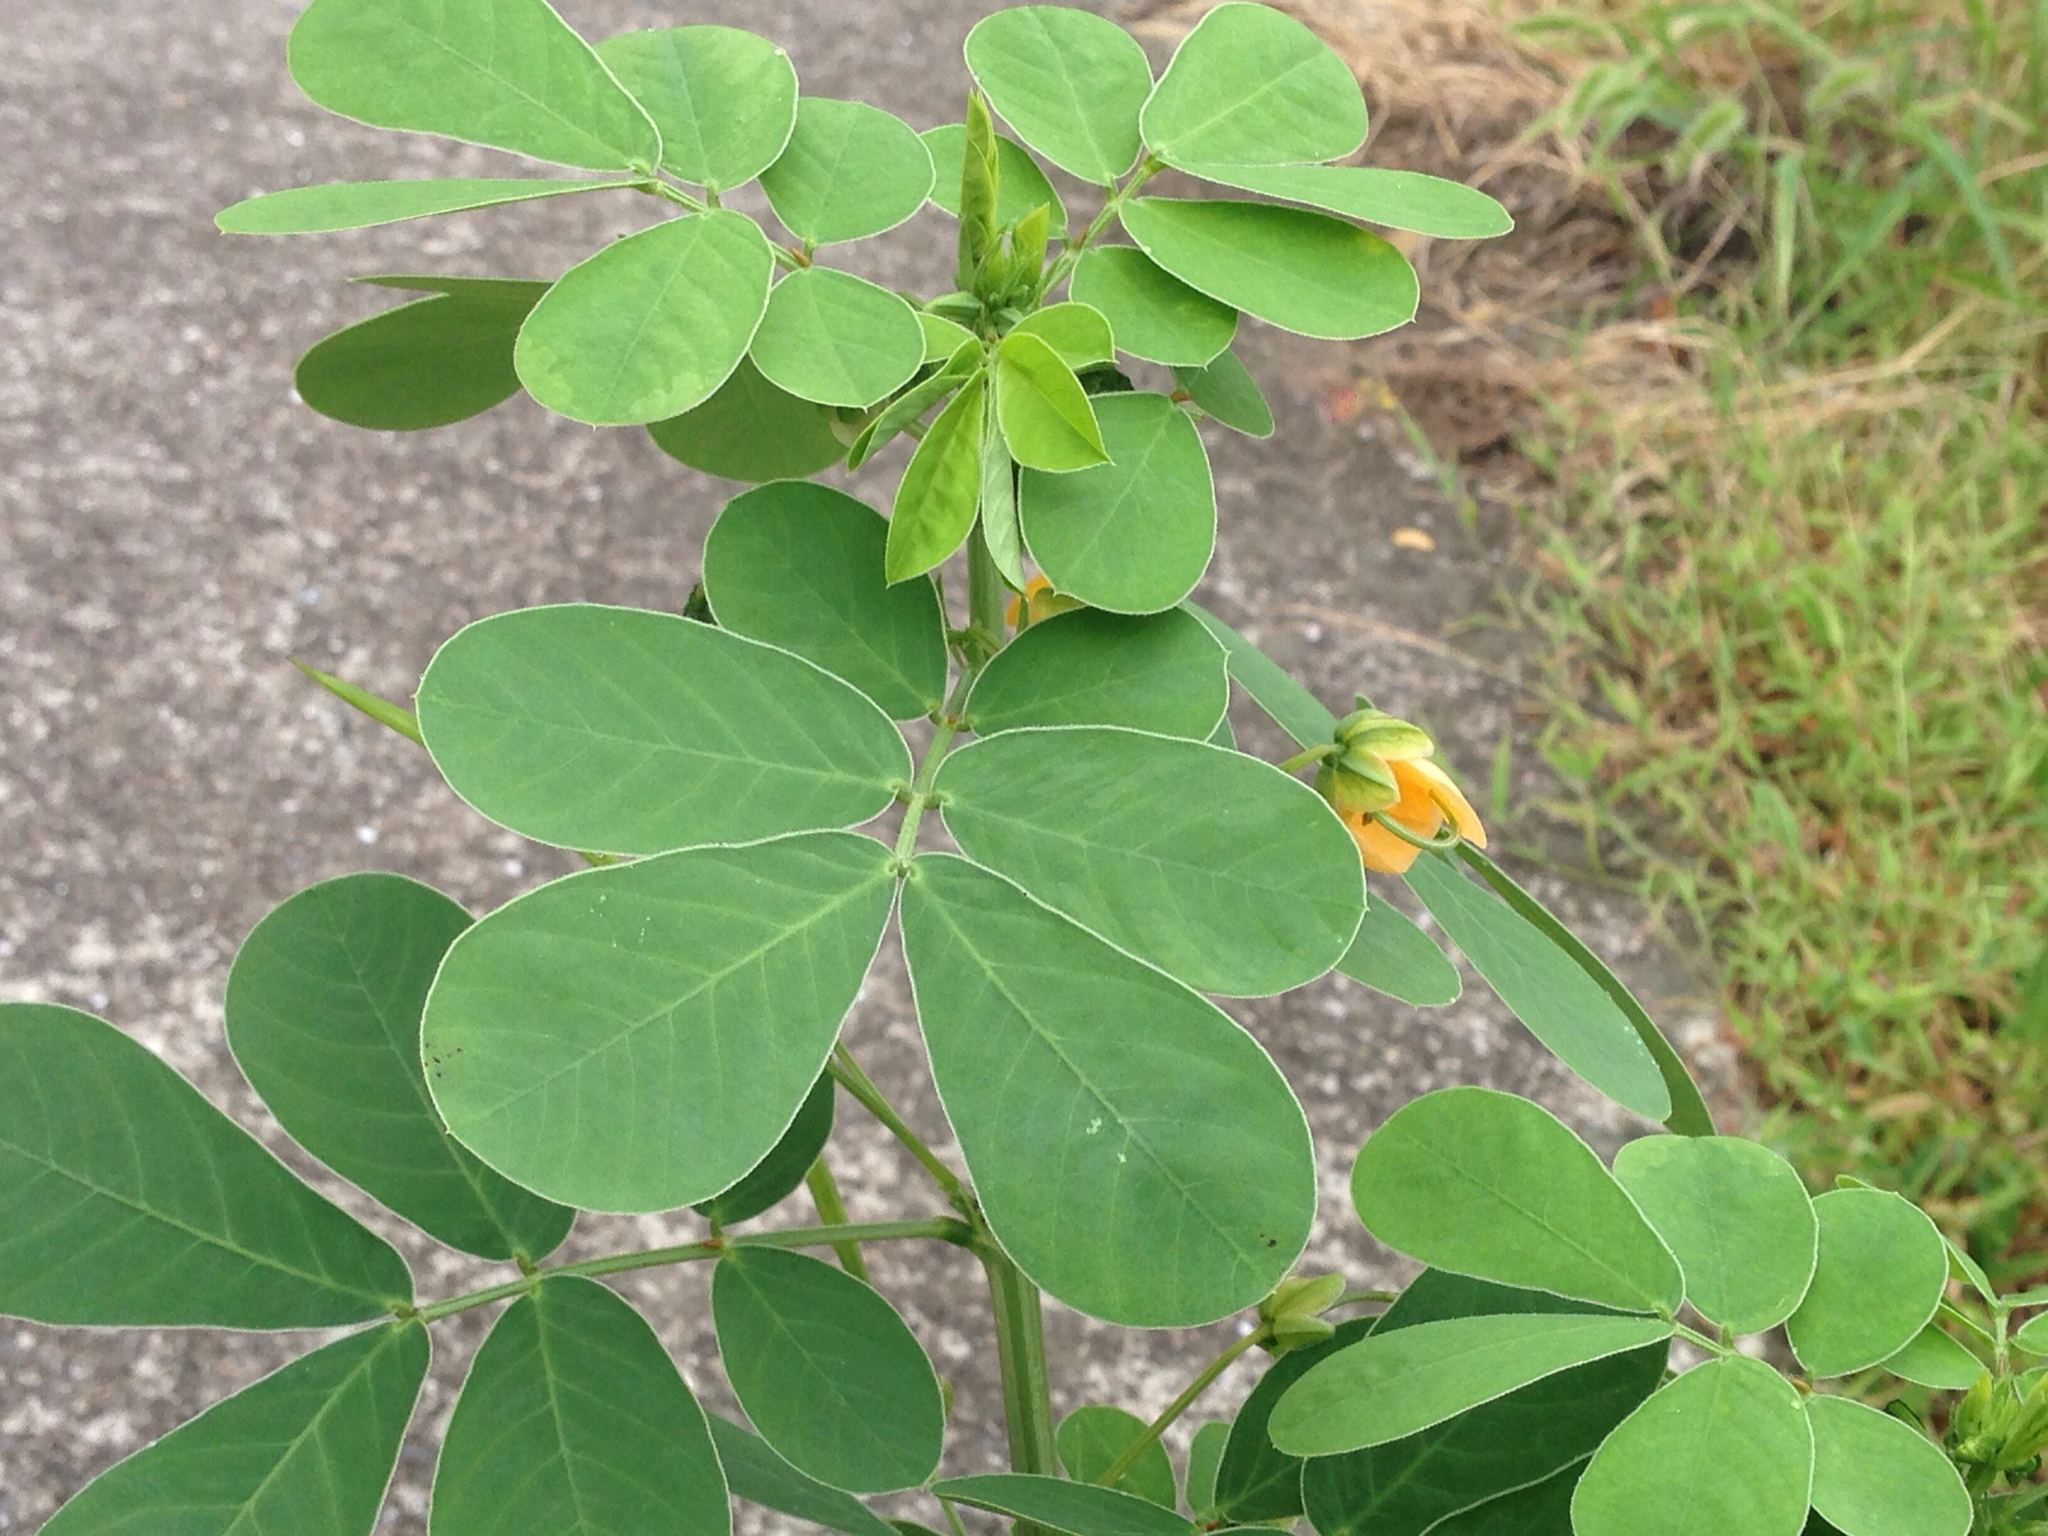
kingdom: Plantae
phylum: Tracheophyta
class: Magnoliopsida
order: Fabales
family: Fabaceae
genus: Senna
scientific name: Senna obtusifolia
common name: Java-bean
